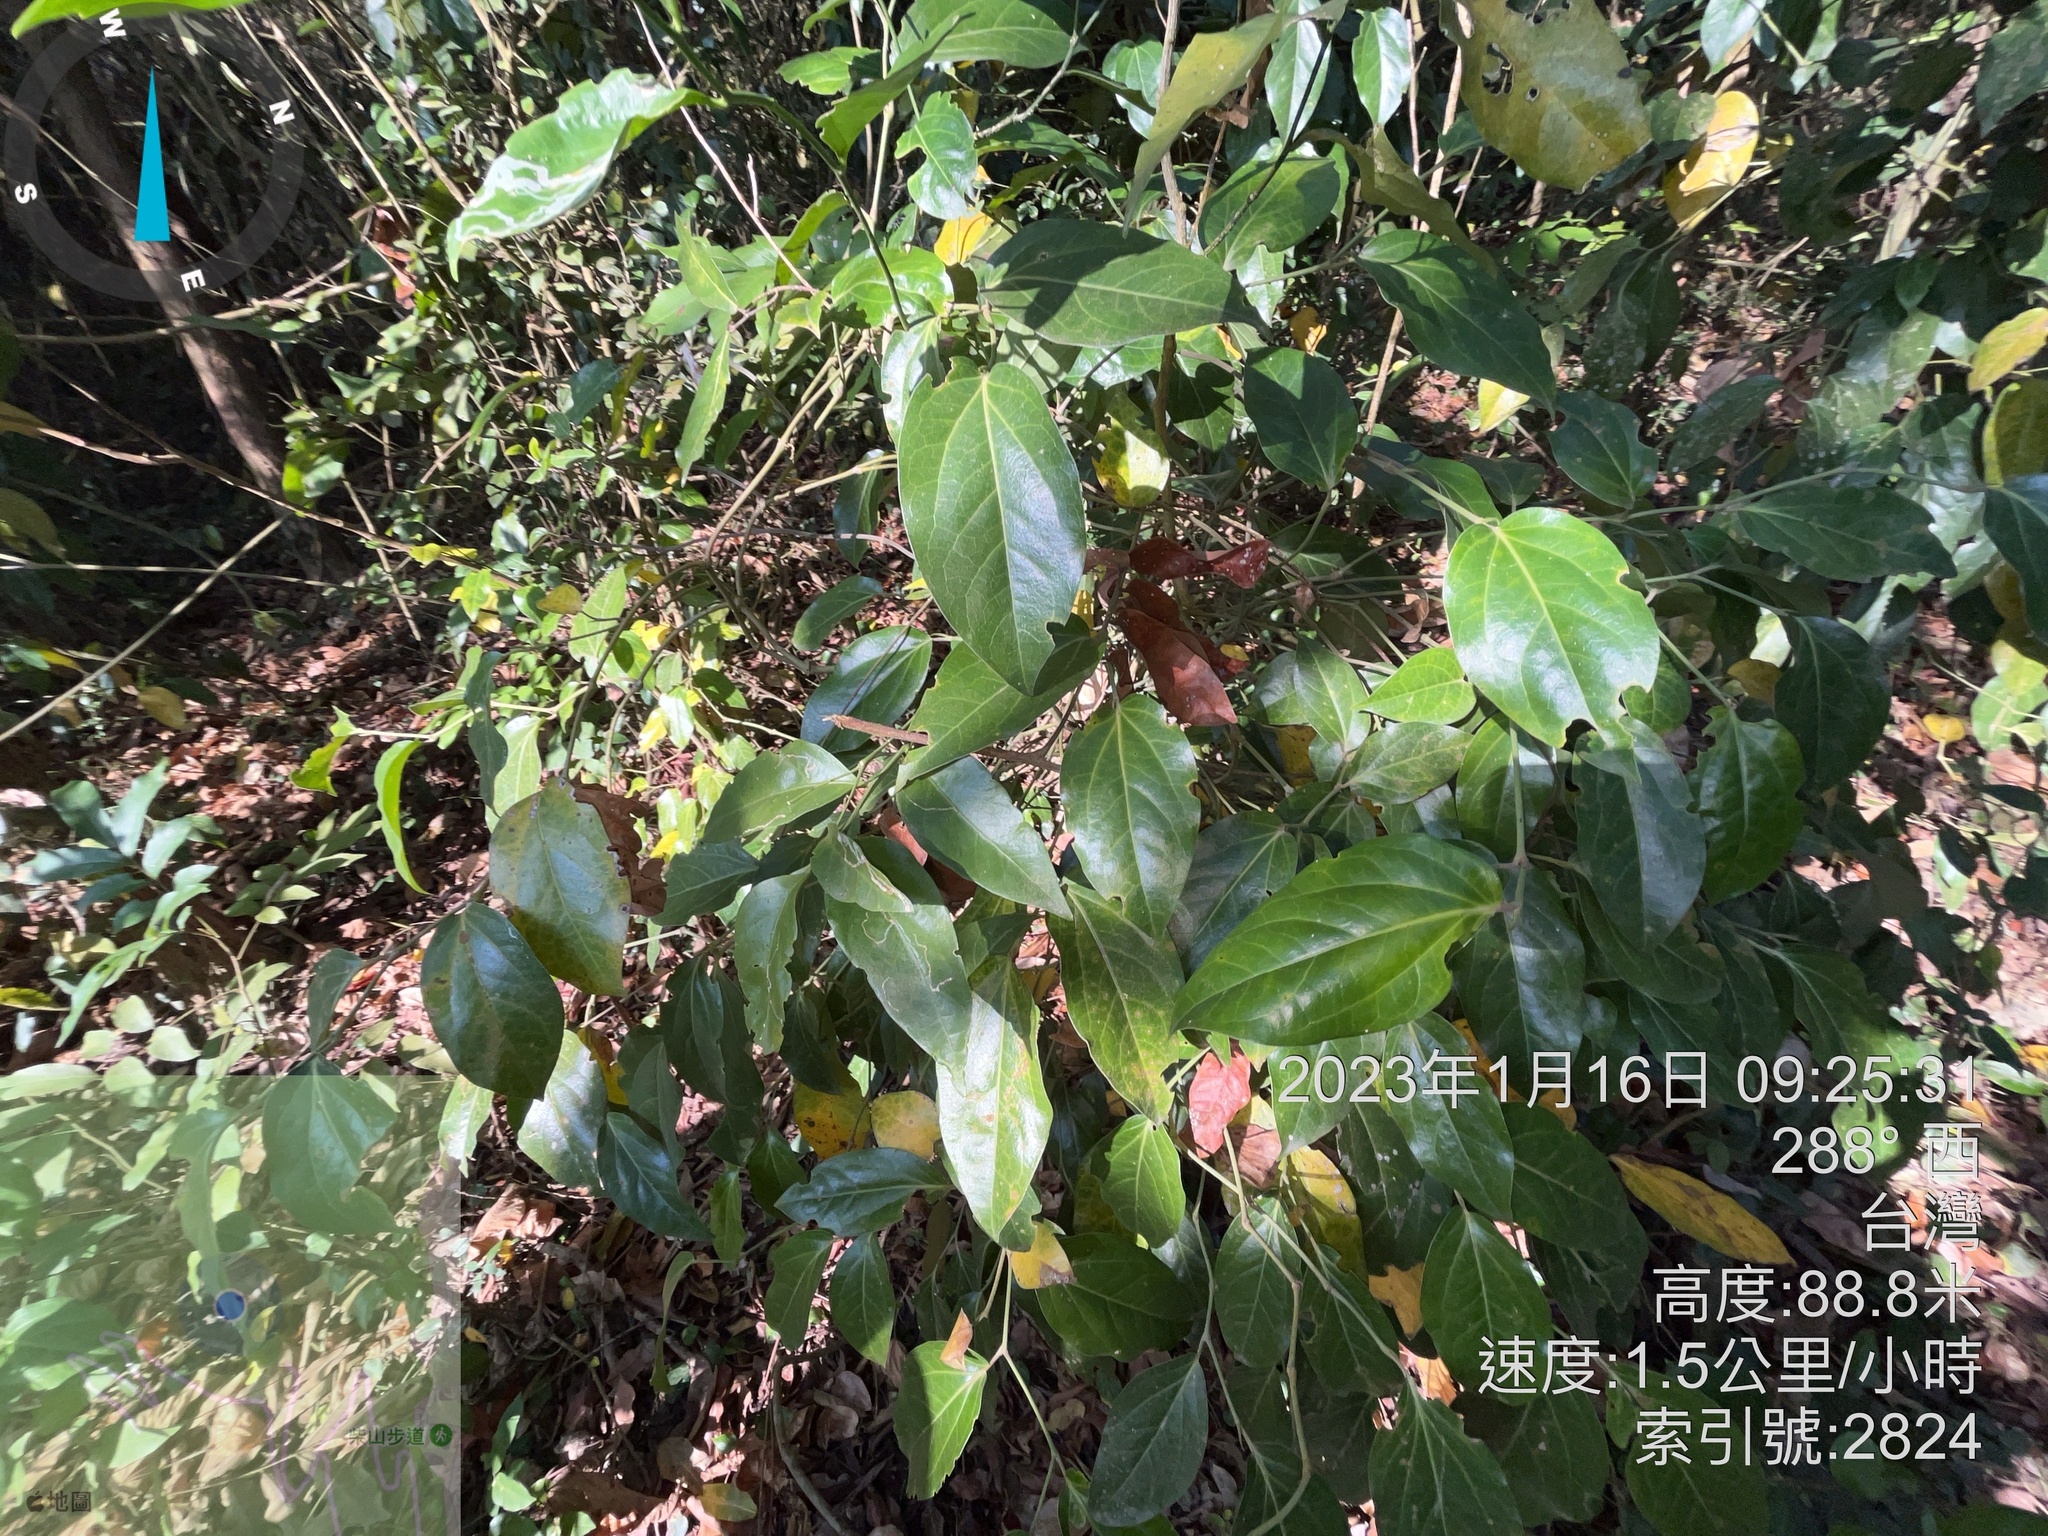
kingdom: Plantae
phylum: Tracheophyta
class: Magnoliopsida
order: Piperales
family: Piperaceae
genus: Piper
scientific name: Piper kawakamii
